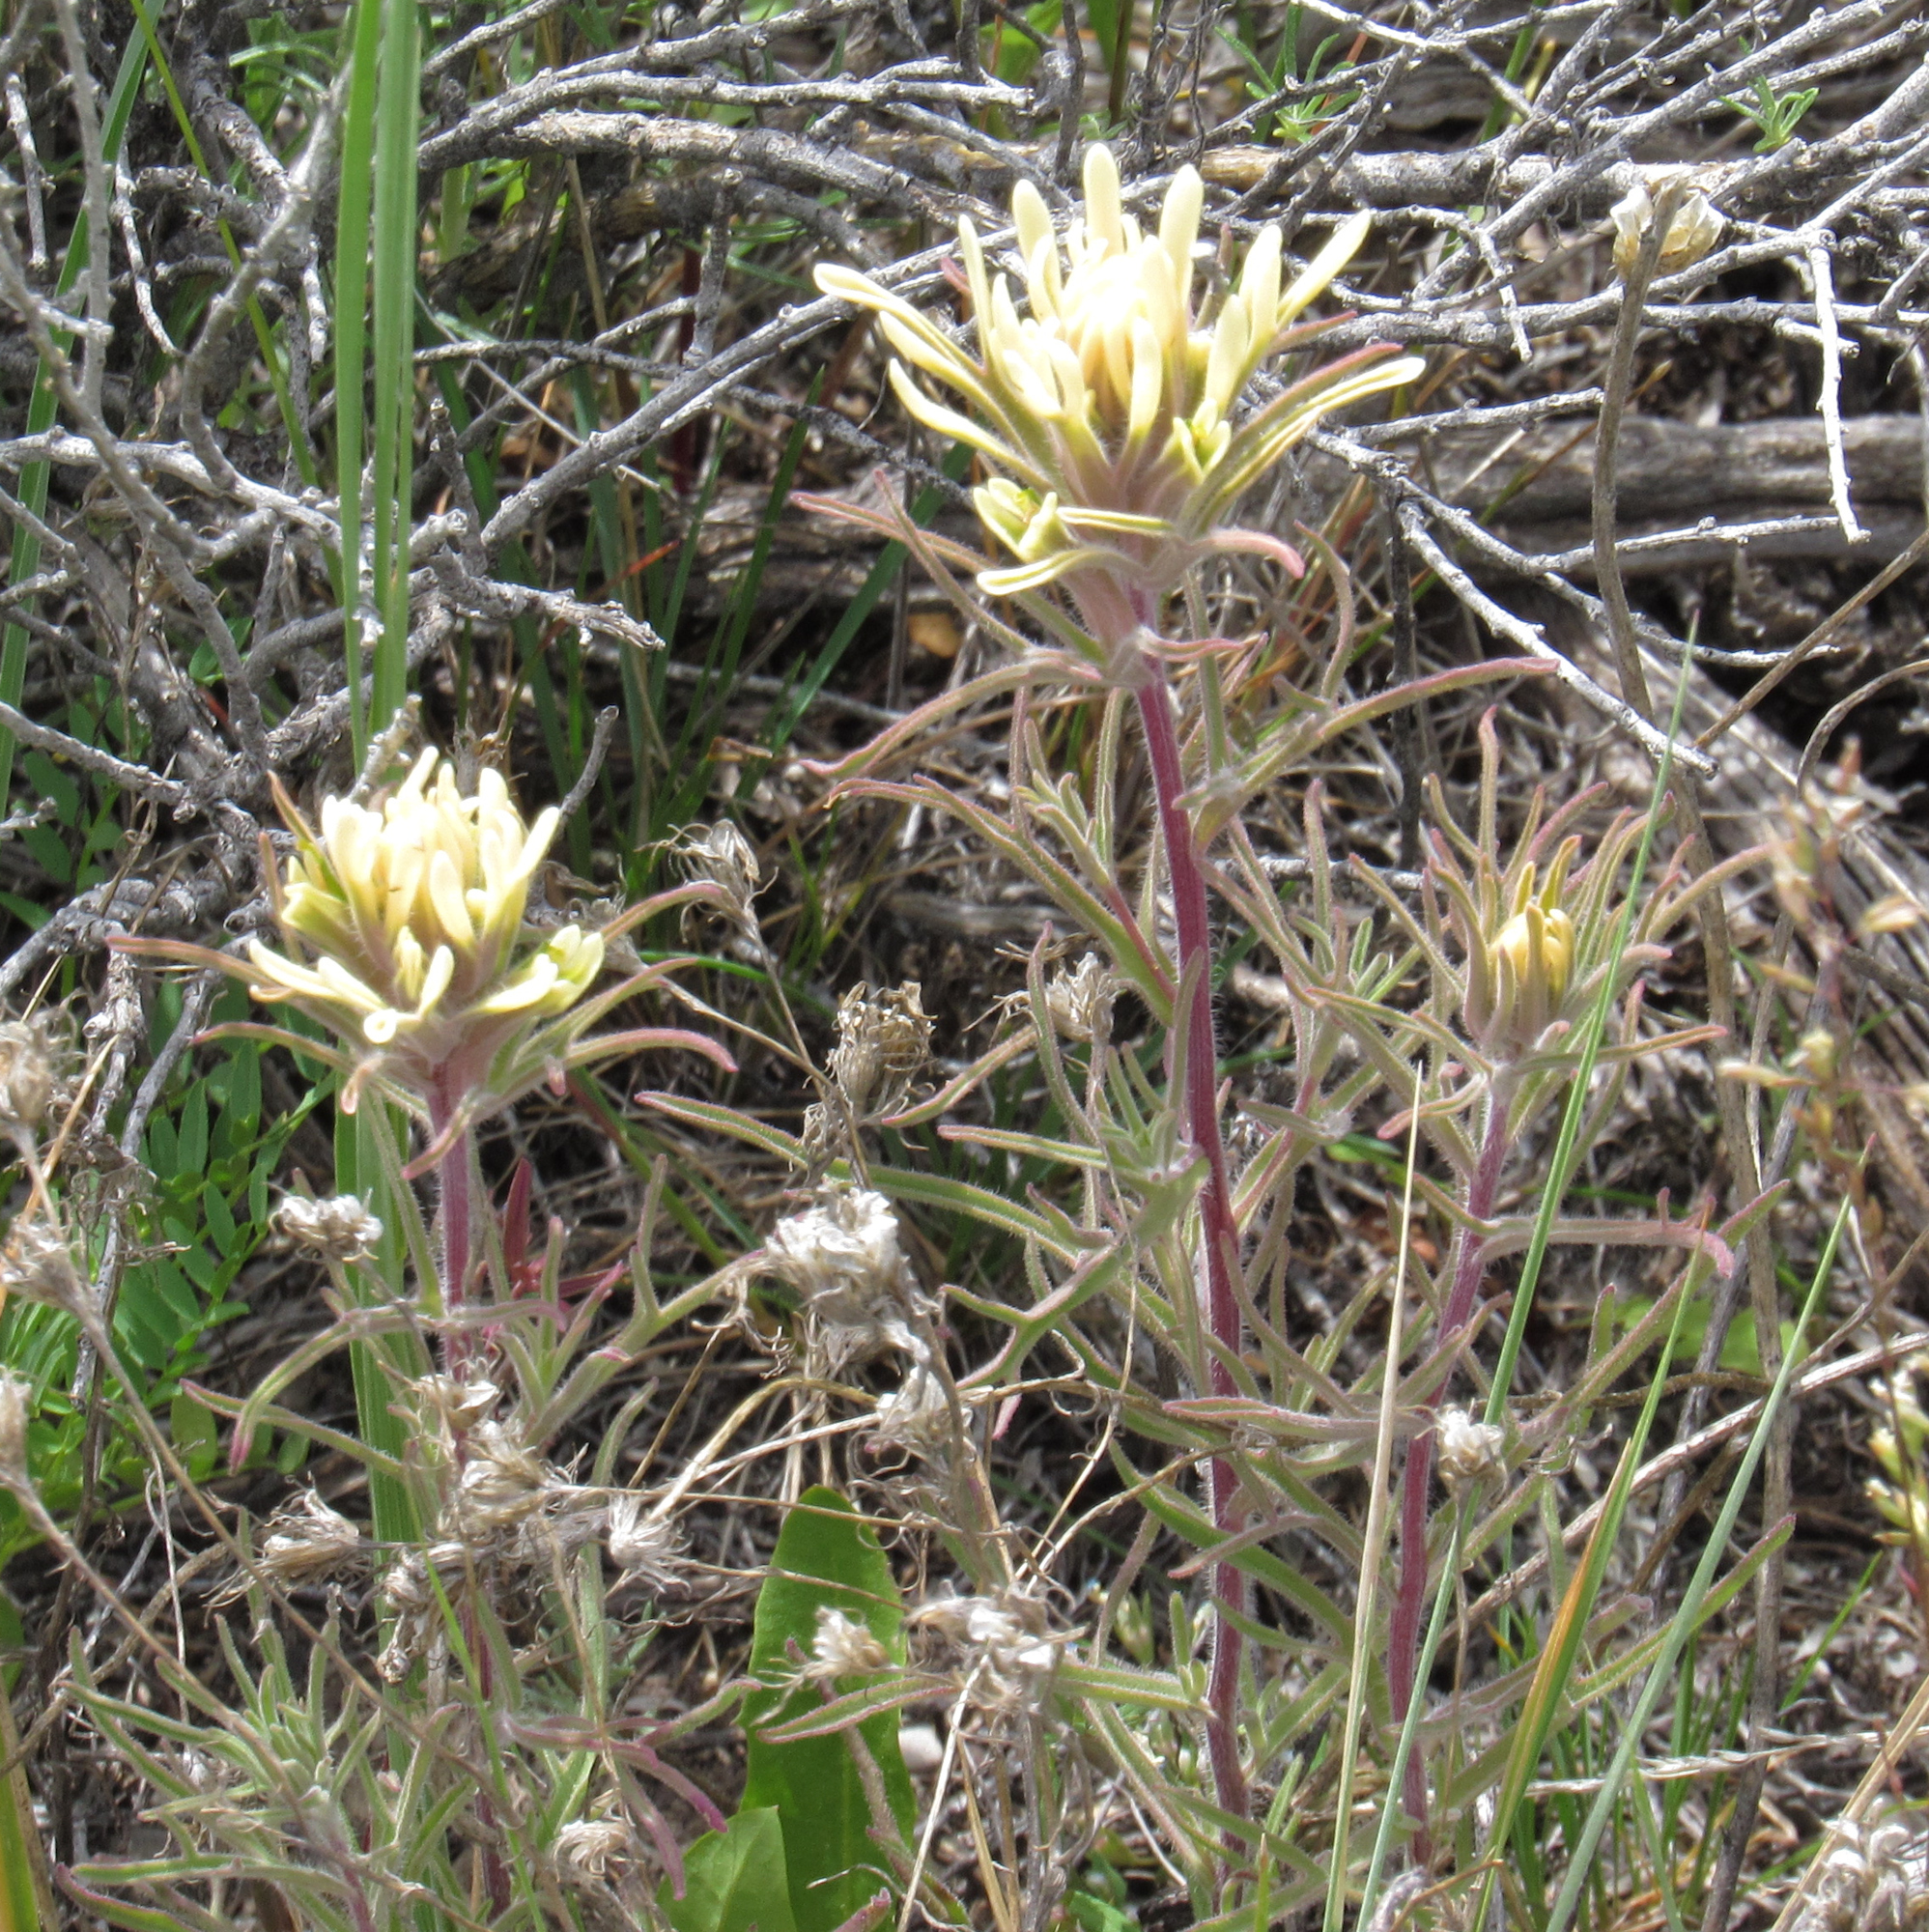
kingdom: Plantae
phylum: Tracheophyta
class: Magnoliopsida
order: Lamiales
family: Orobanchaceae
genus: Castilleja
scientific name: Castilleja angustifolia
